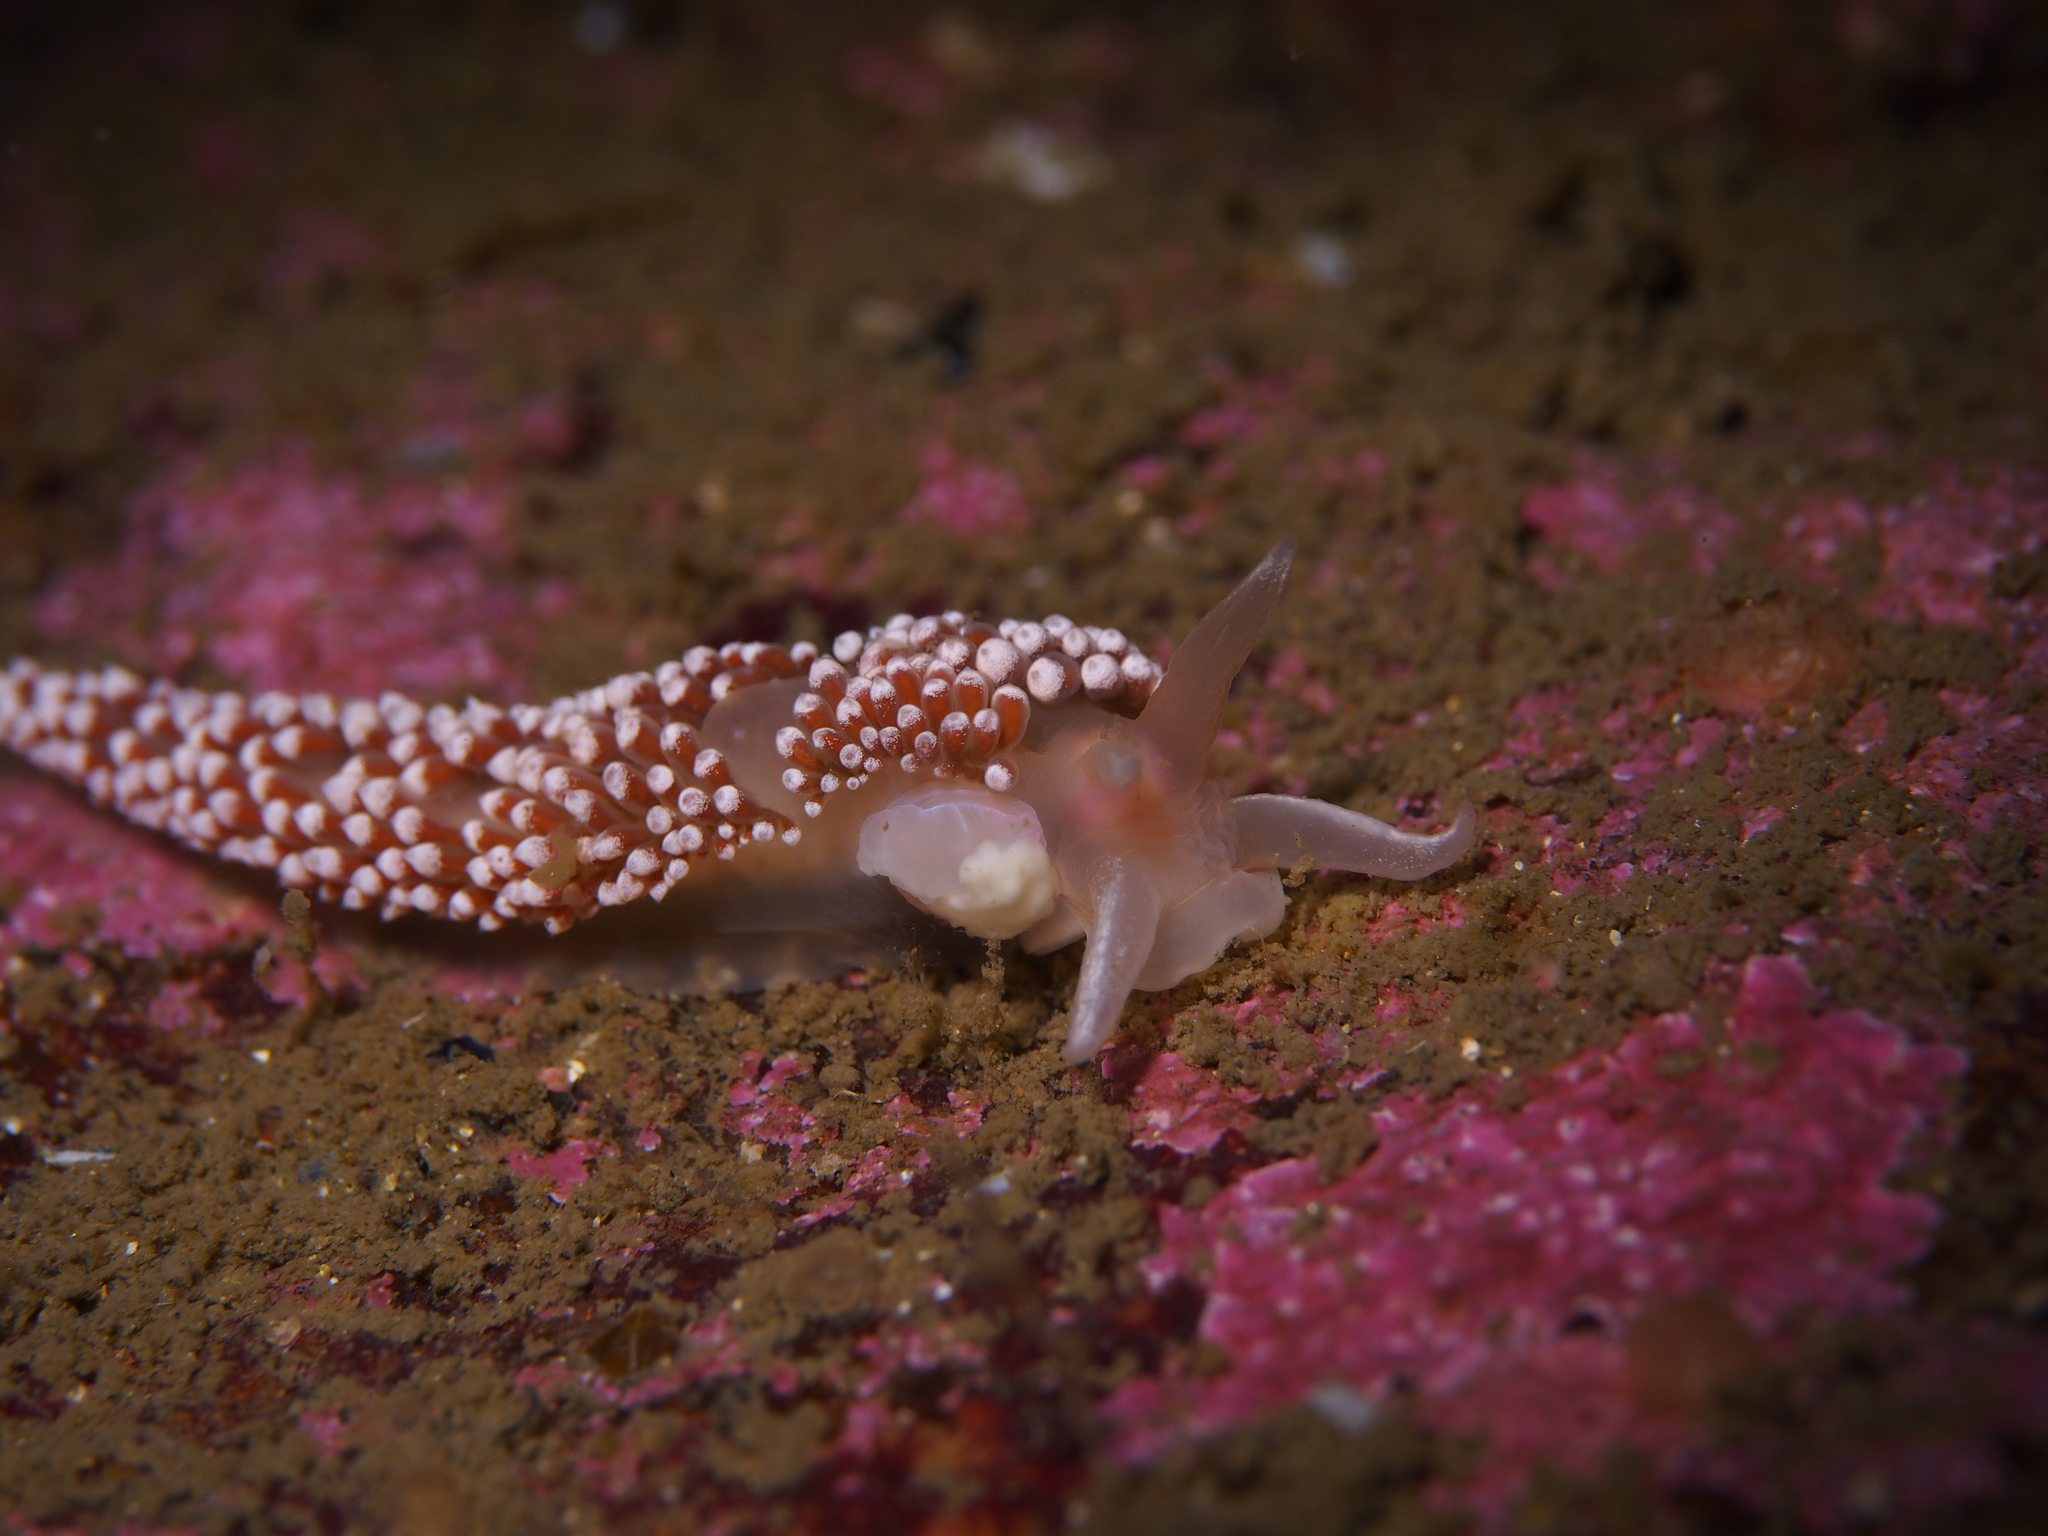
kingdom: Animalia
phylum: Mollusca
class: Gastropoda
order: Nudibranchia
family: Coryphellidae
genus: Coryphella
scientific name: Coryphella verrucosa
